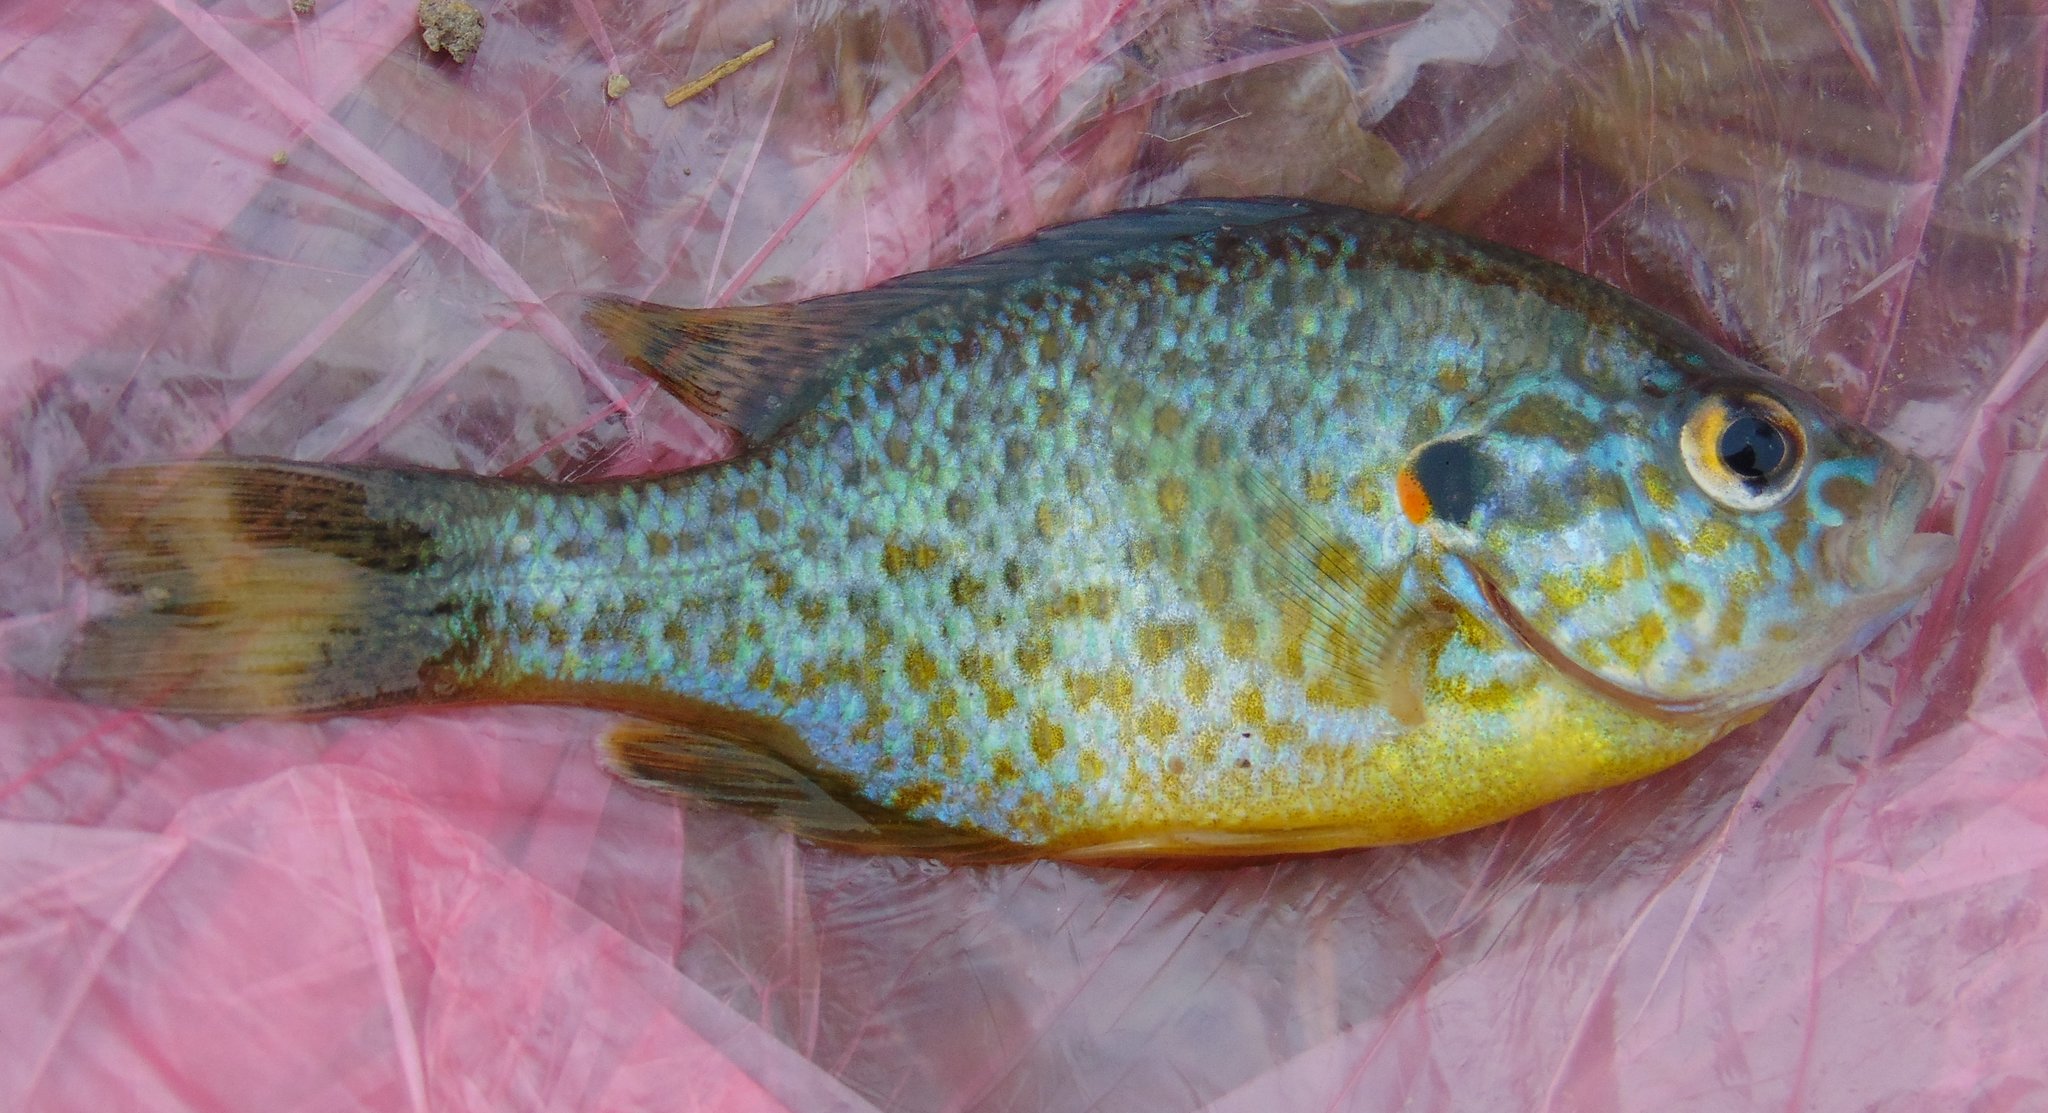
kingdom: Animalia
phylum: Chordata
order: Perciformes
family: Centrarchidae
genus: Lepomis
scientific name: Lepomis gibbosus
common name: Pumpkinseed
